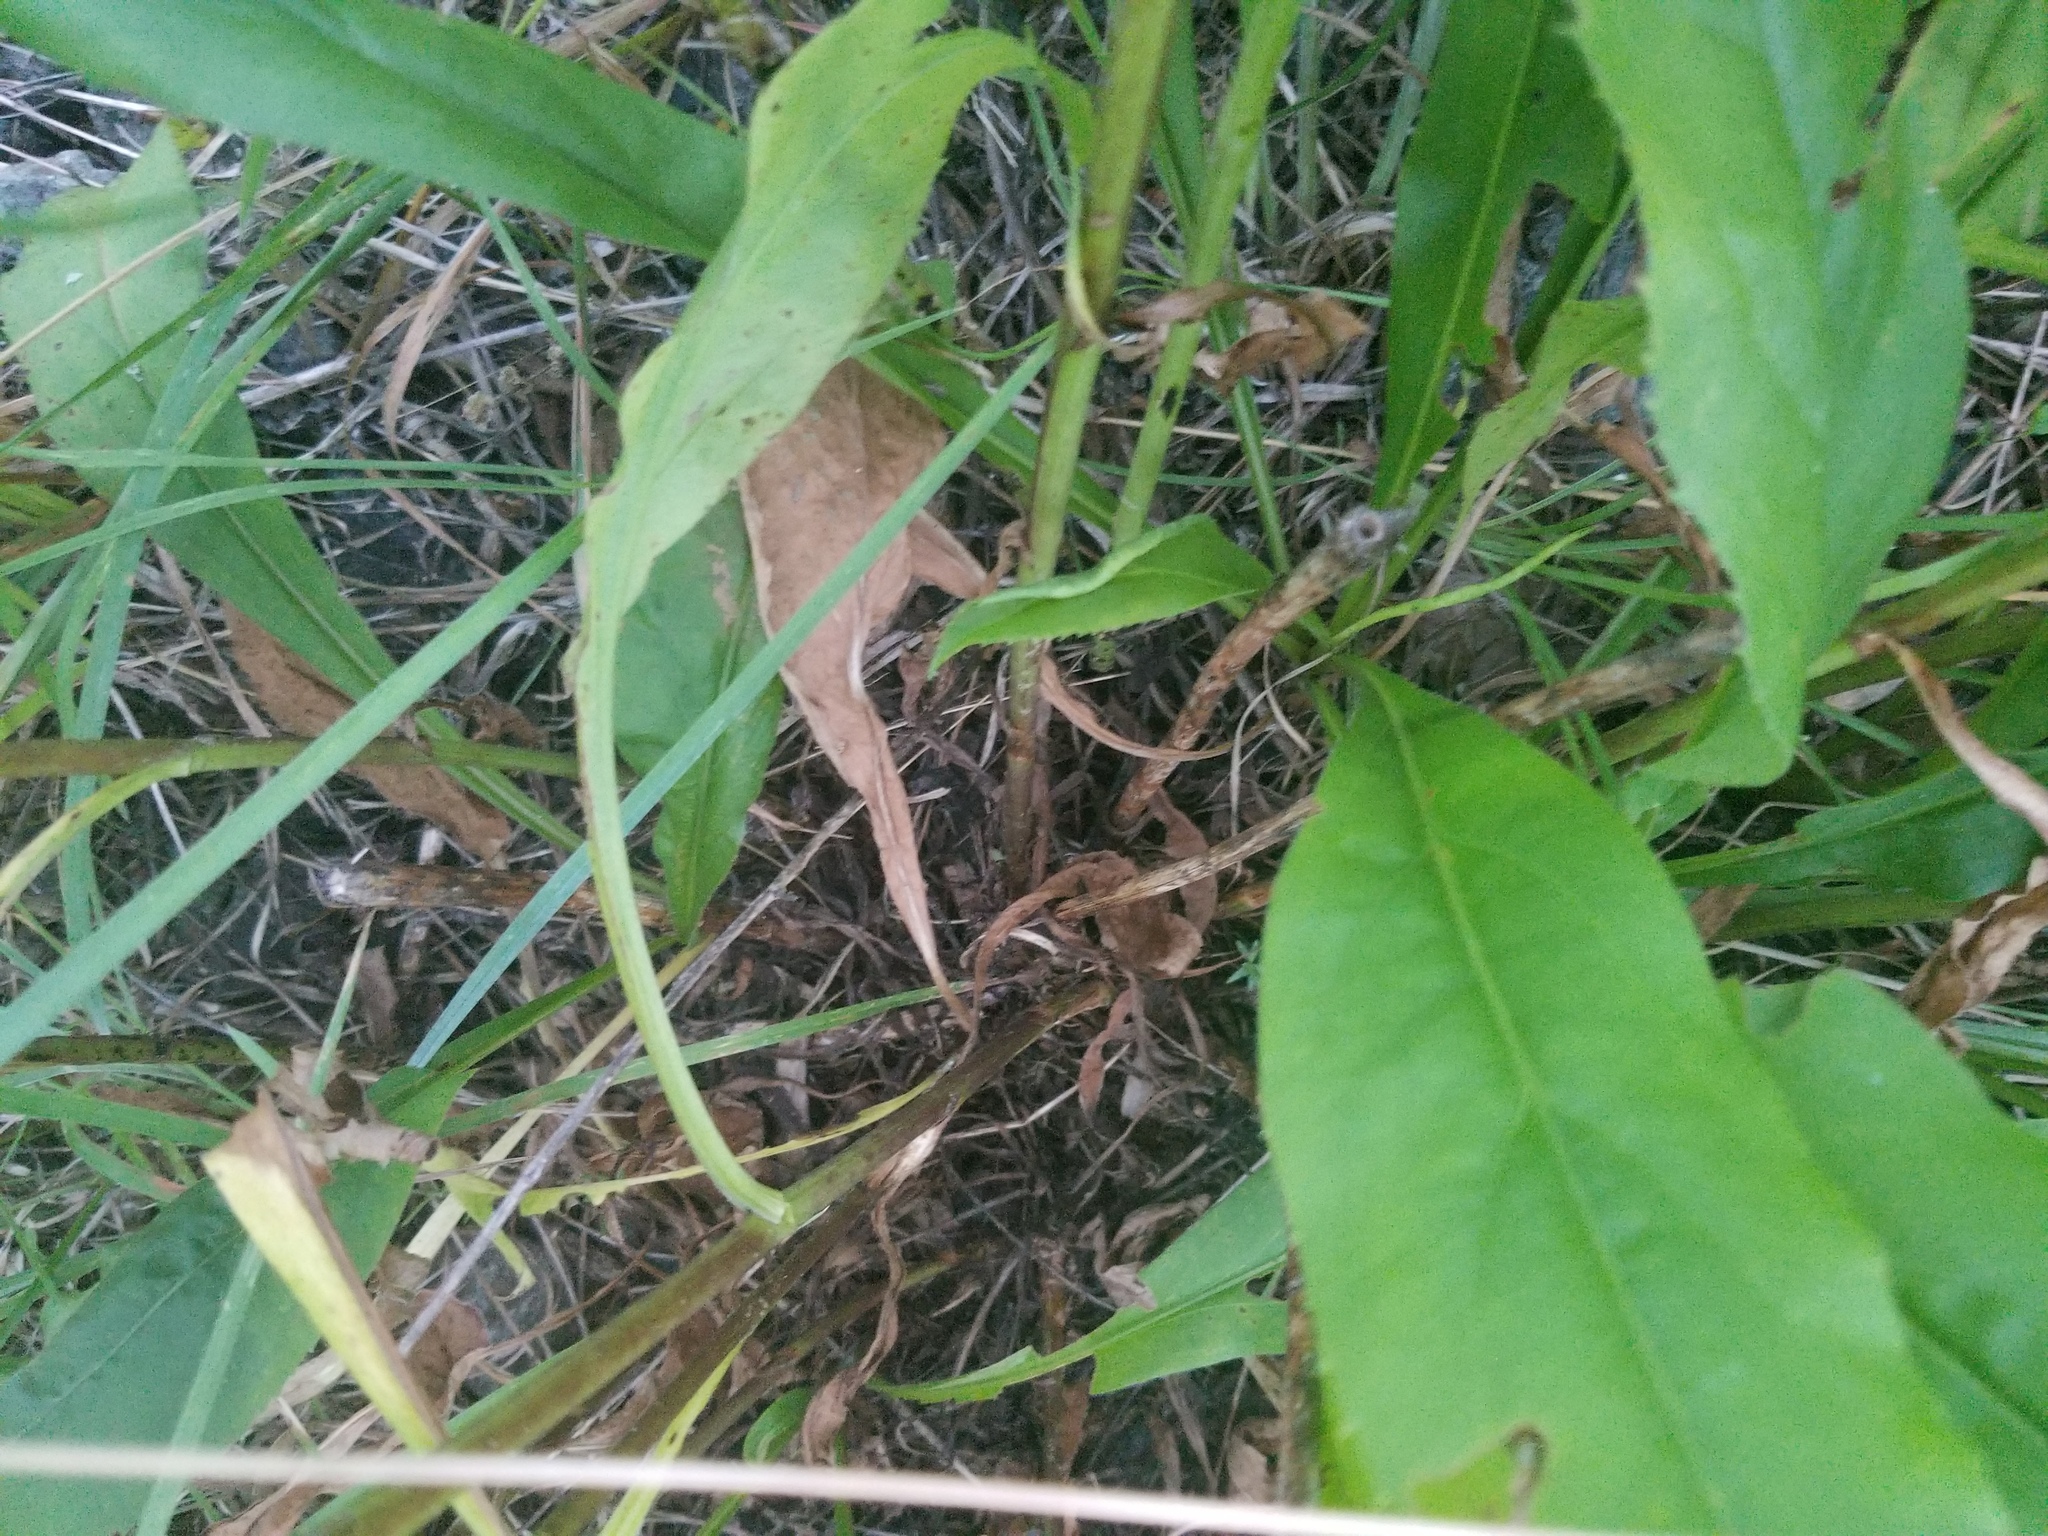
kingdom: Plantae
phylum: Tracheophyta
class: Magnoliopsida
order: Asterales
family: Asteraceae
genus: Solidago
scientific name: Solidago juncea
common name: Early goldenrod
